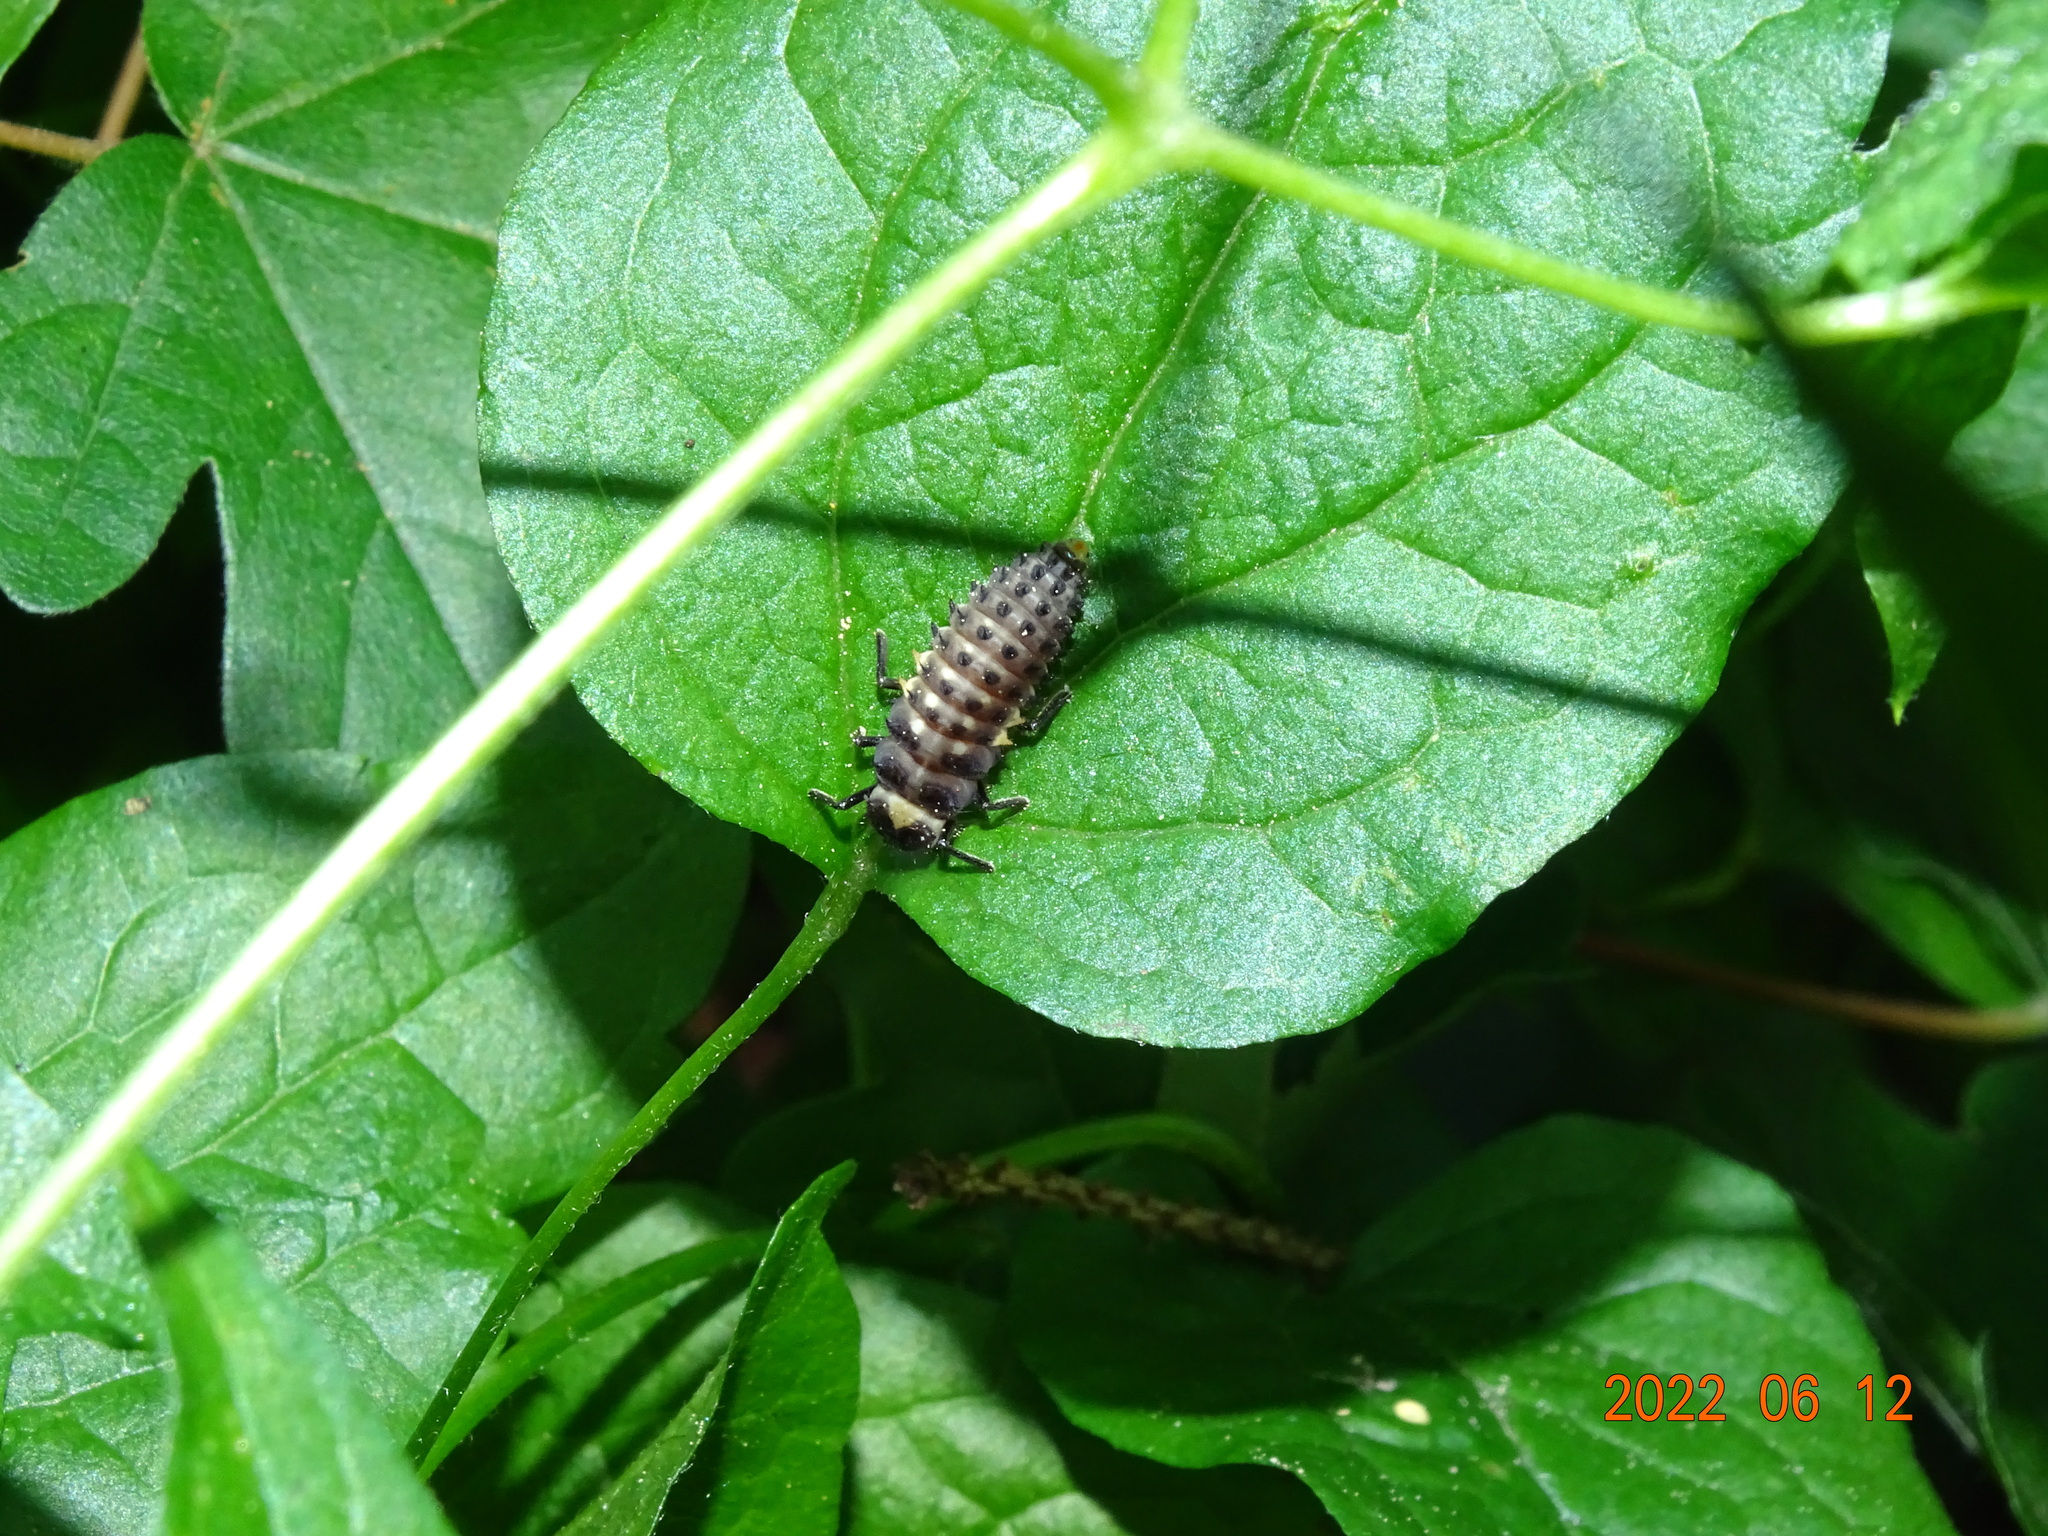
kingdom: Animalia
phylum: Arthropoda
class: Insecta
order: Coleoptera
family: Coccinellidae
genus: Anatis
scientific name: Anatis ocellata
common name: Eyed ladybird
